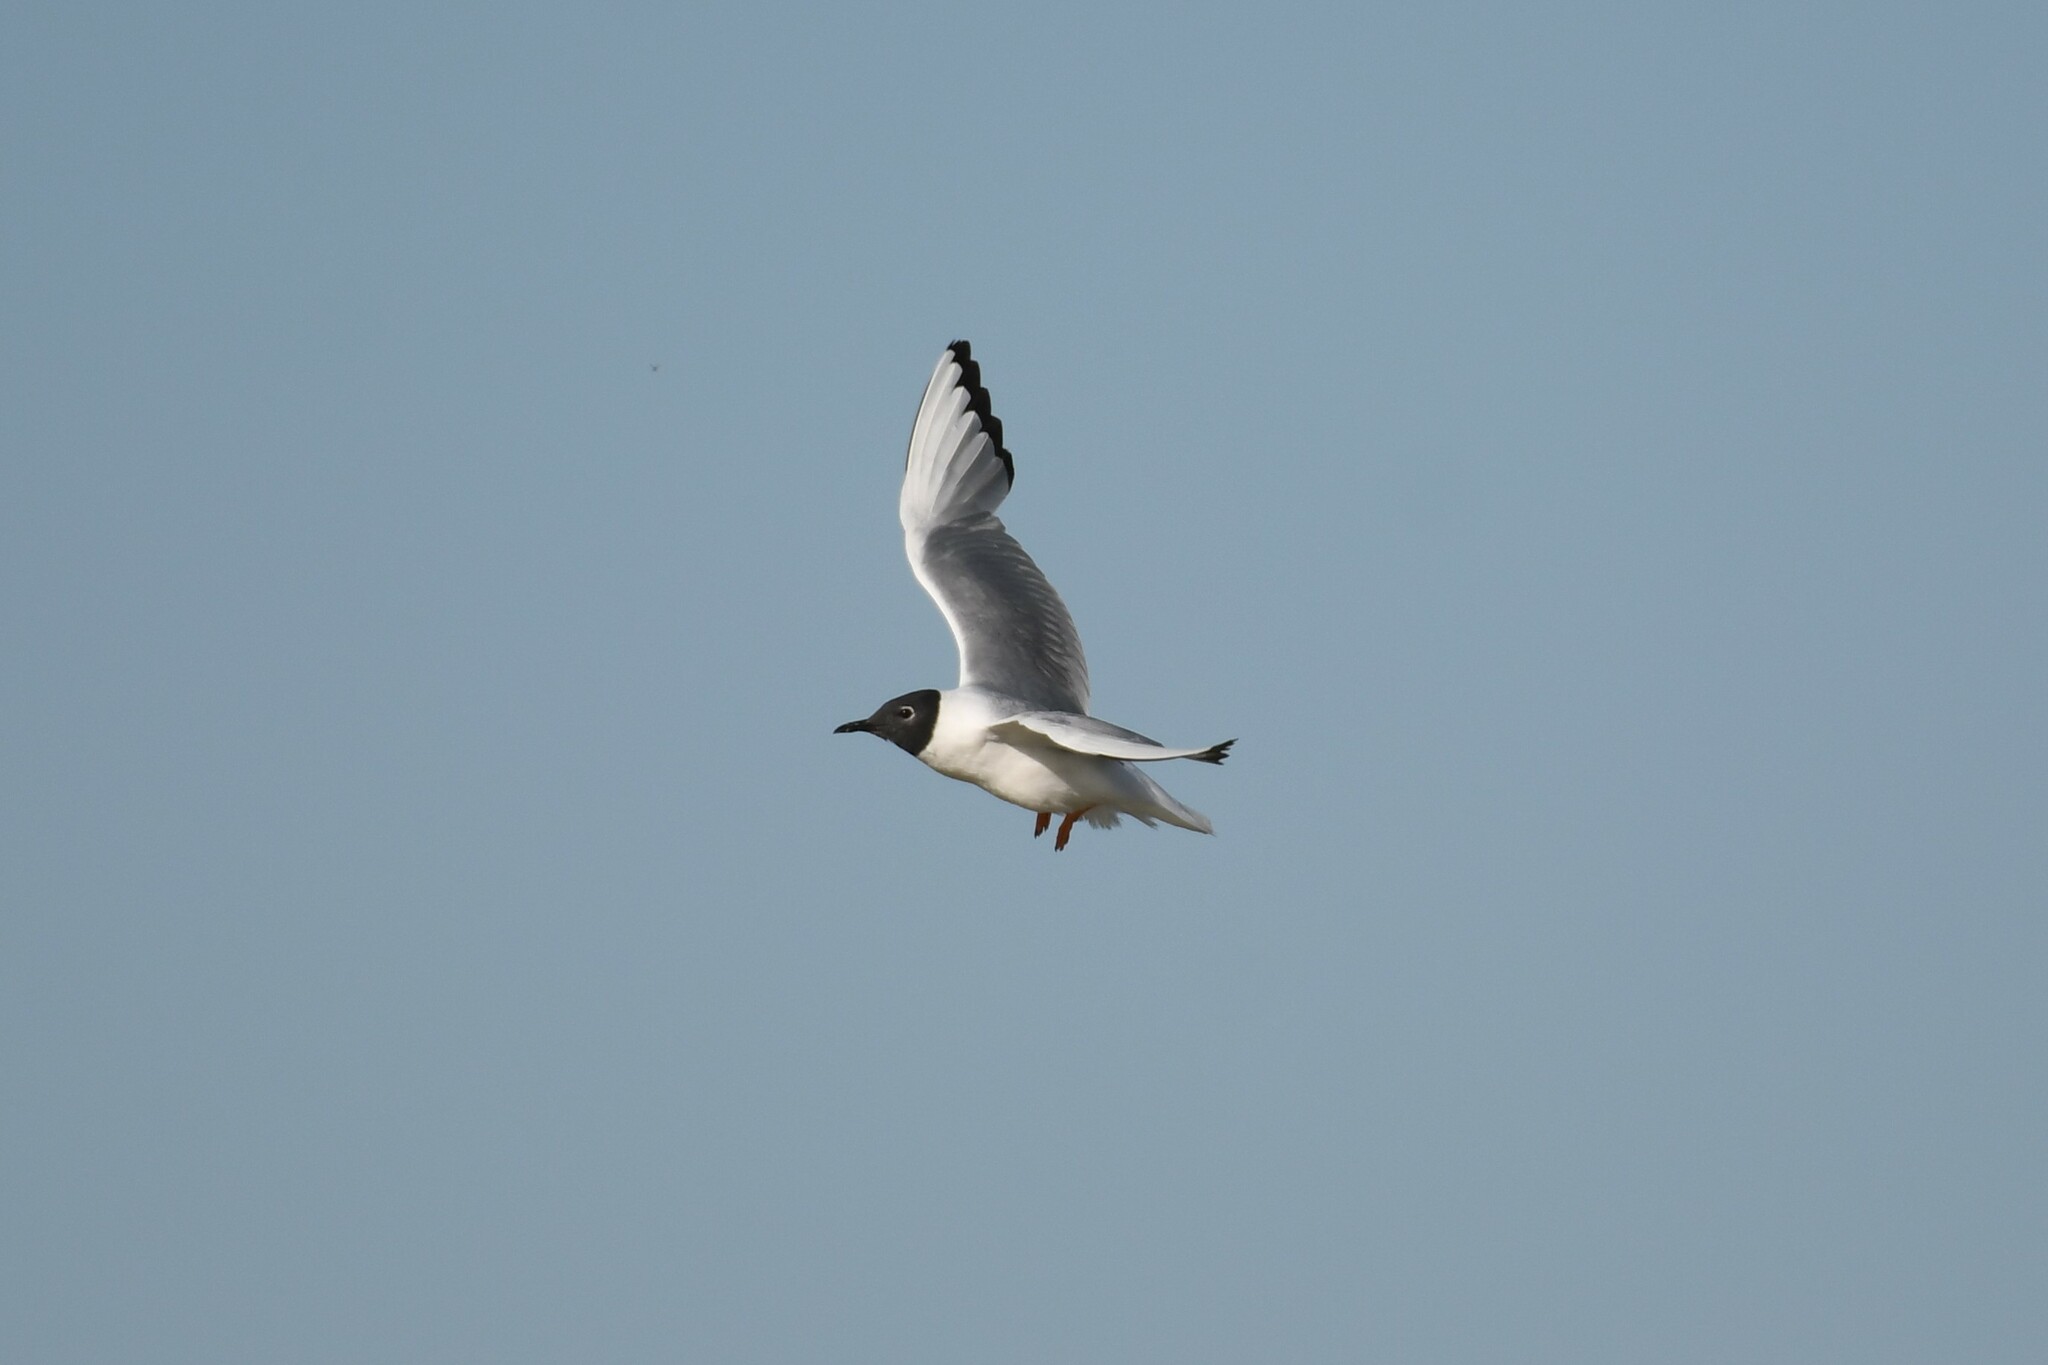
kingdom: Animalia
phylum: Chordata
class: Aves
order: Charadriiformes
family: Laridae
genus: Chroicocephalus
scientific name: Chroicocephalus philadelphia
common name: Bonaparte's gull
